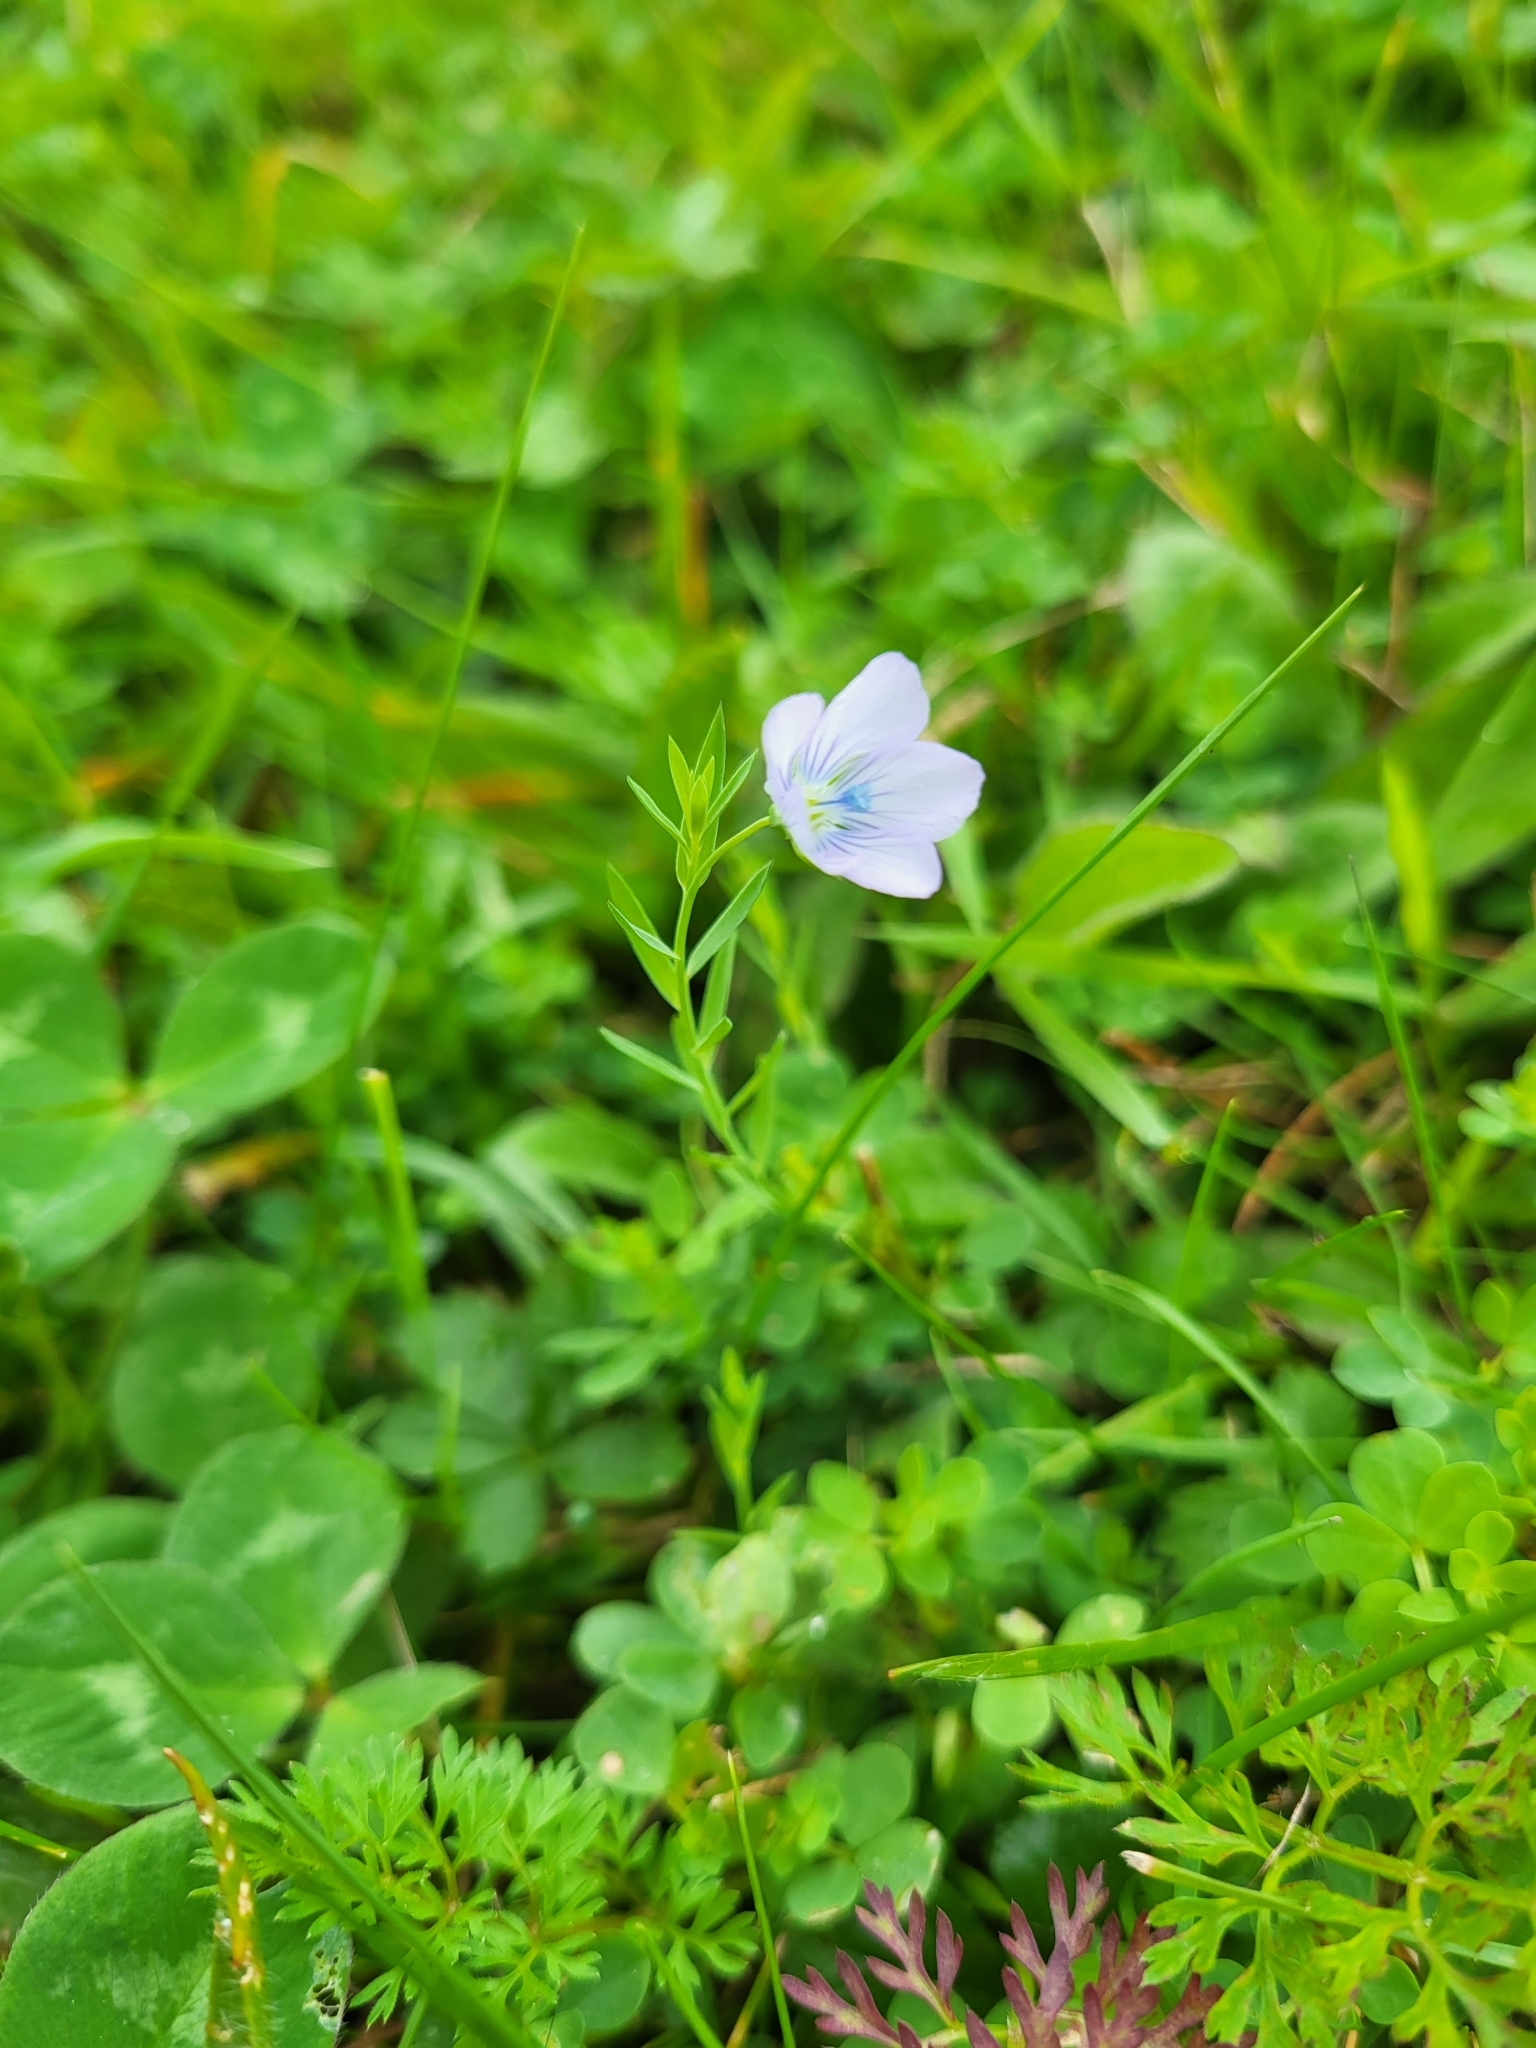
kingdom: Plantae
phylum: Tracheophyta
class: Magnoliopsida
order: Malpighiales
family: Linaceae
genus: Linum
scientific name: Linum bienne
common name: Pale flax
